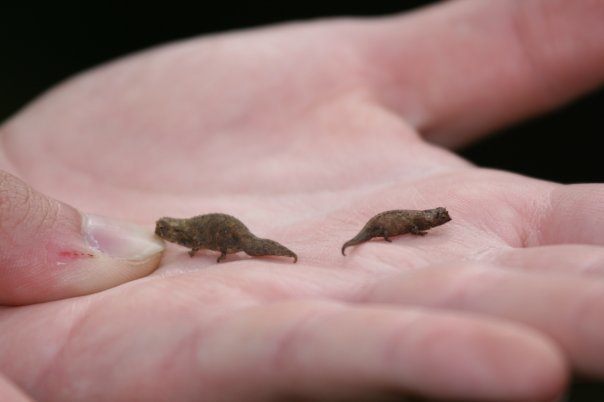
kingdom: Animalia
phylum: Chordata
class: Squamata
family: Chamaeleonidae
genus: Brookesia
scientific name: Brookesia tuberculata
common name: Mount d'ambre leaf chameleon
